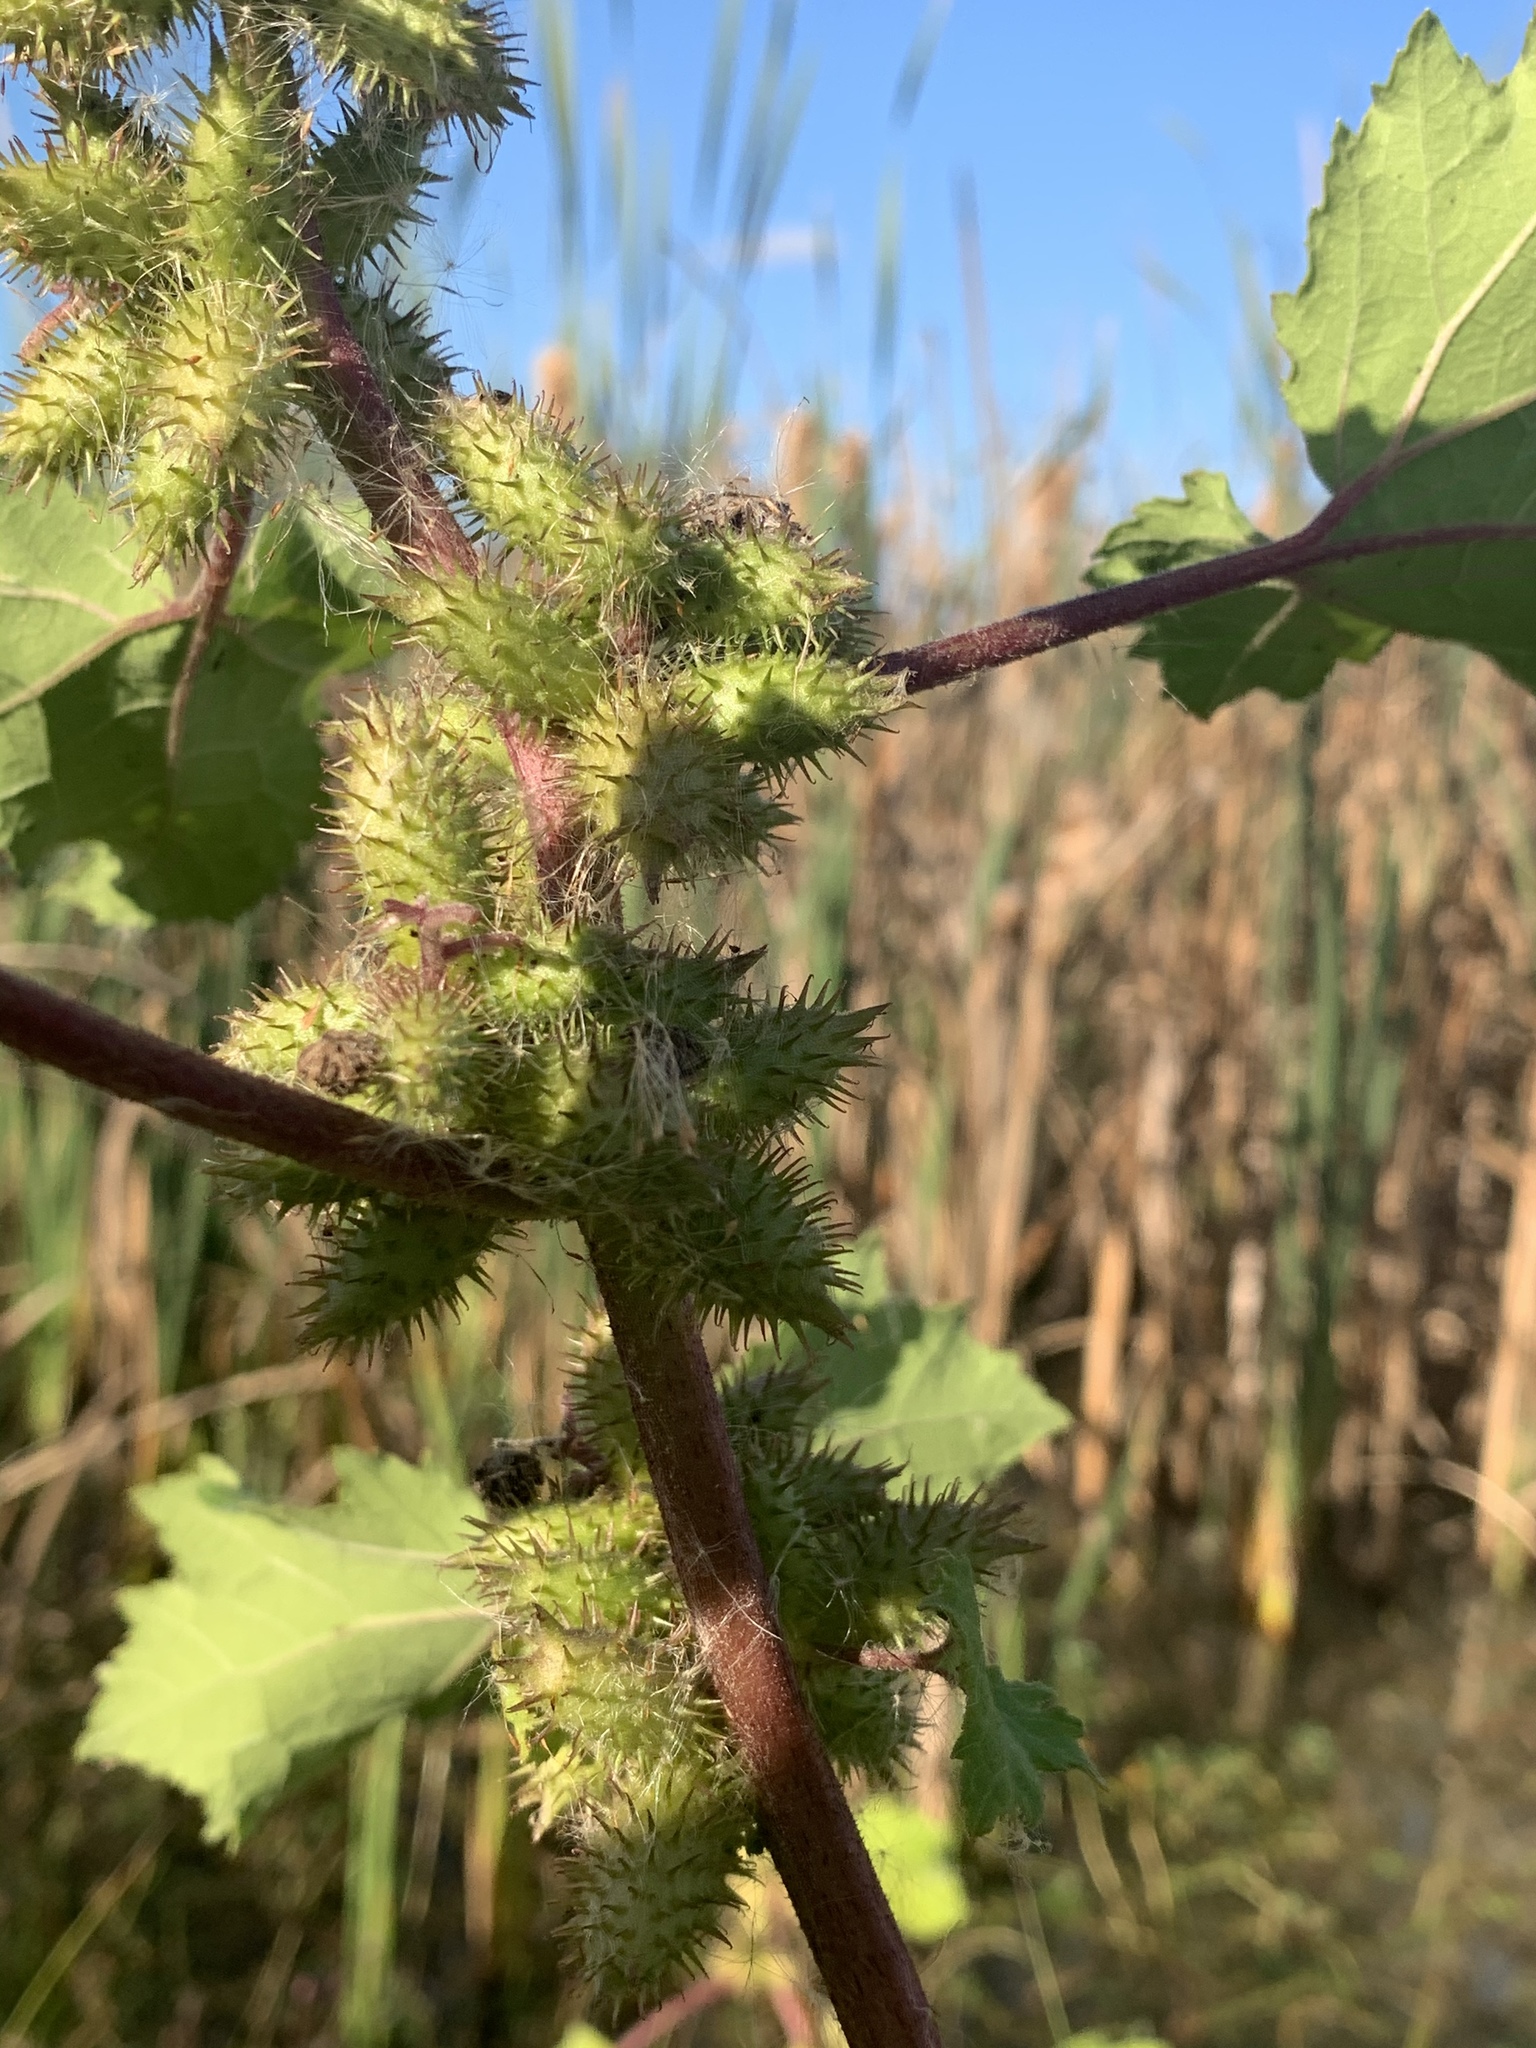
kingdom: Plantae
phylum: Tracheophyta
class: Magnoliopsida
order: Asterales
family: Asteraceae
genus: Xanthium
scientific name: Xanthium strumarium
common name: Rough cocklebur
